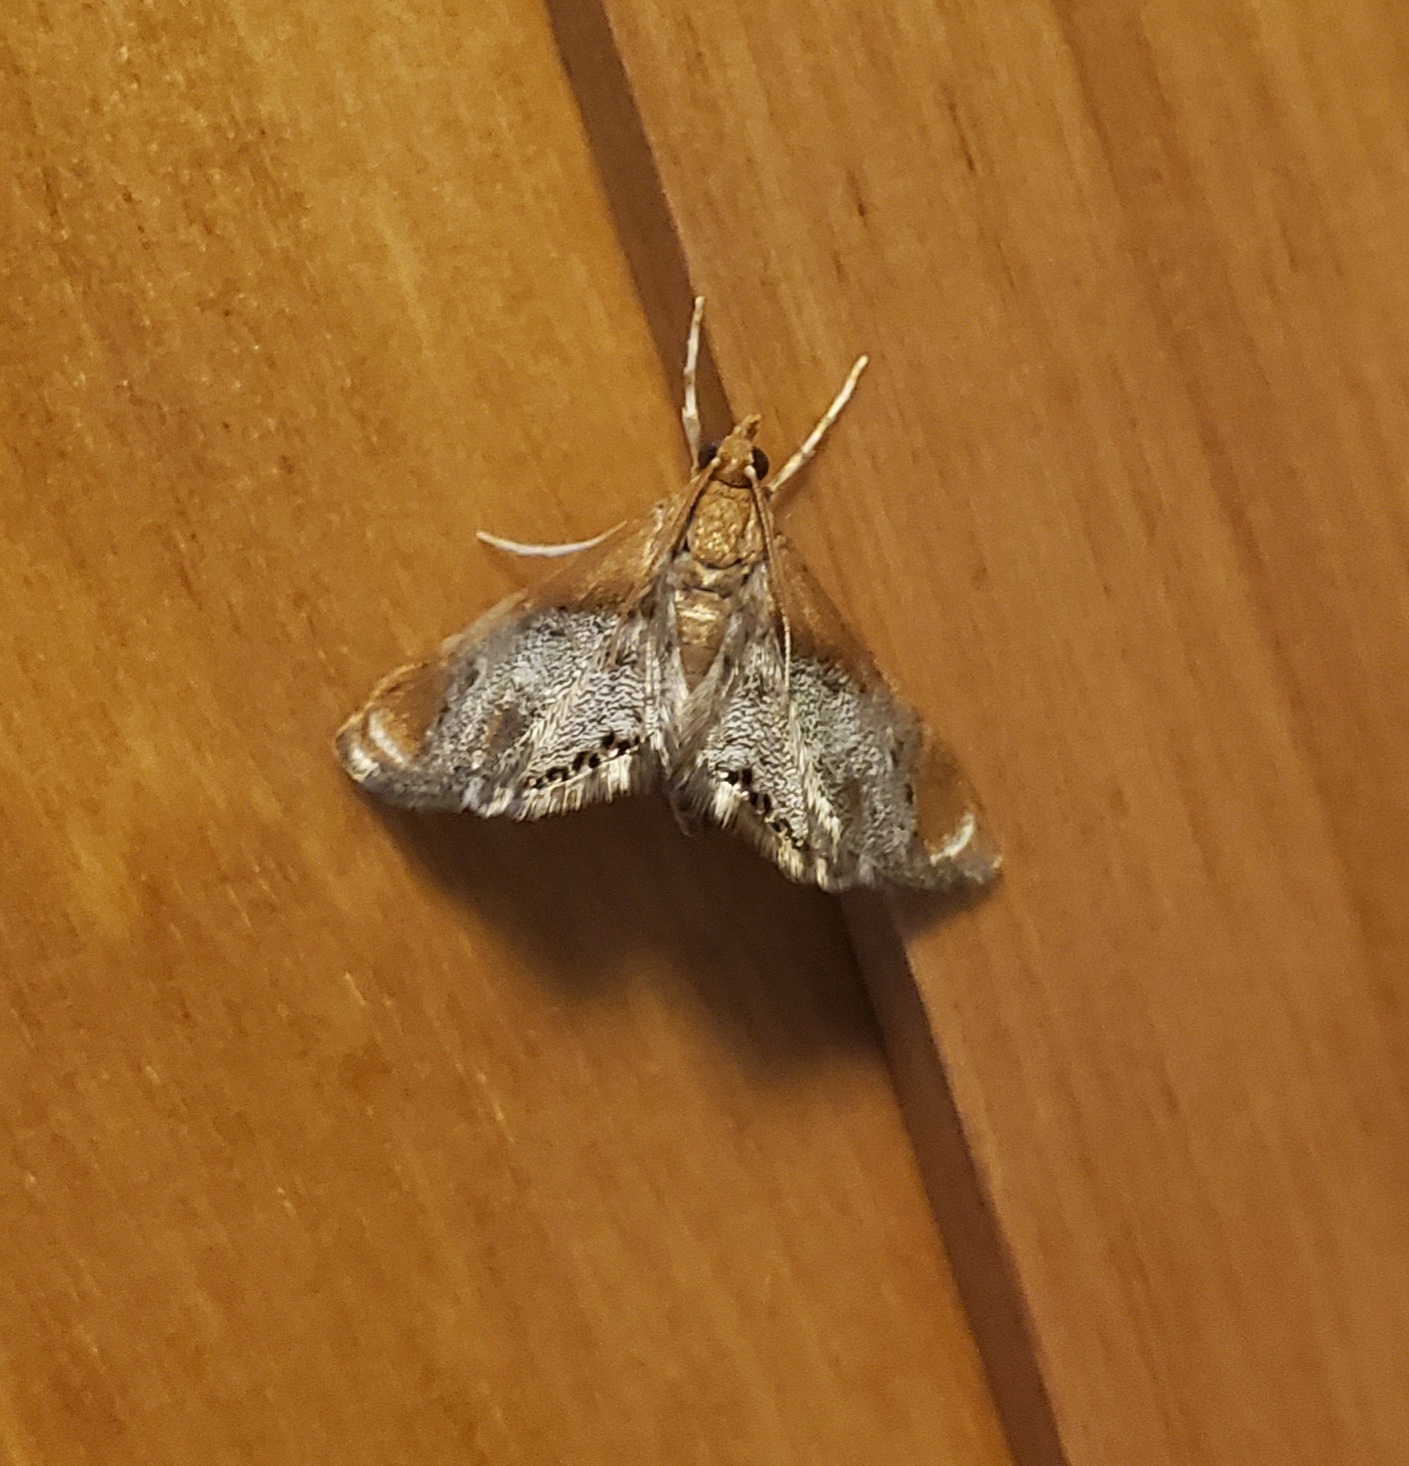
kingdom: Animalia
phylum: Arthropoda
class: Insecta
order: Lepidoptera
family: Crambidae
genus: Chalcoela
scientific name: Chalcoela iphitalis
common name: Sooty-winged chalcoela moth
